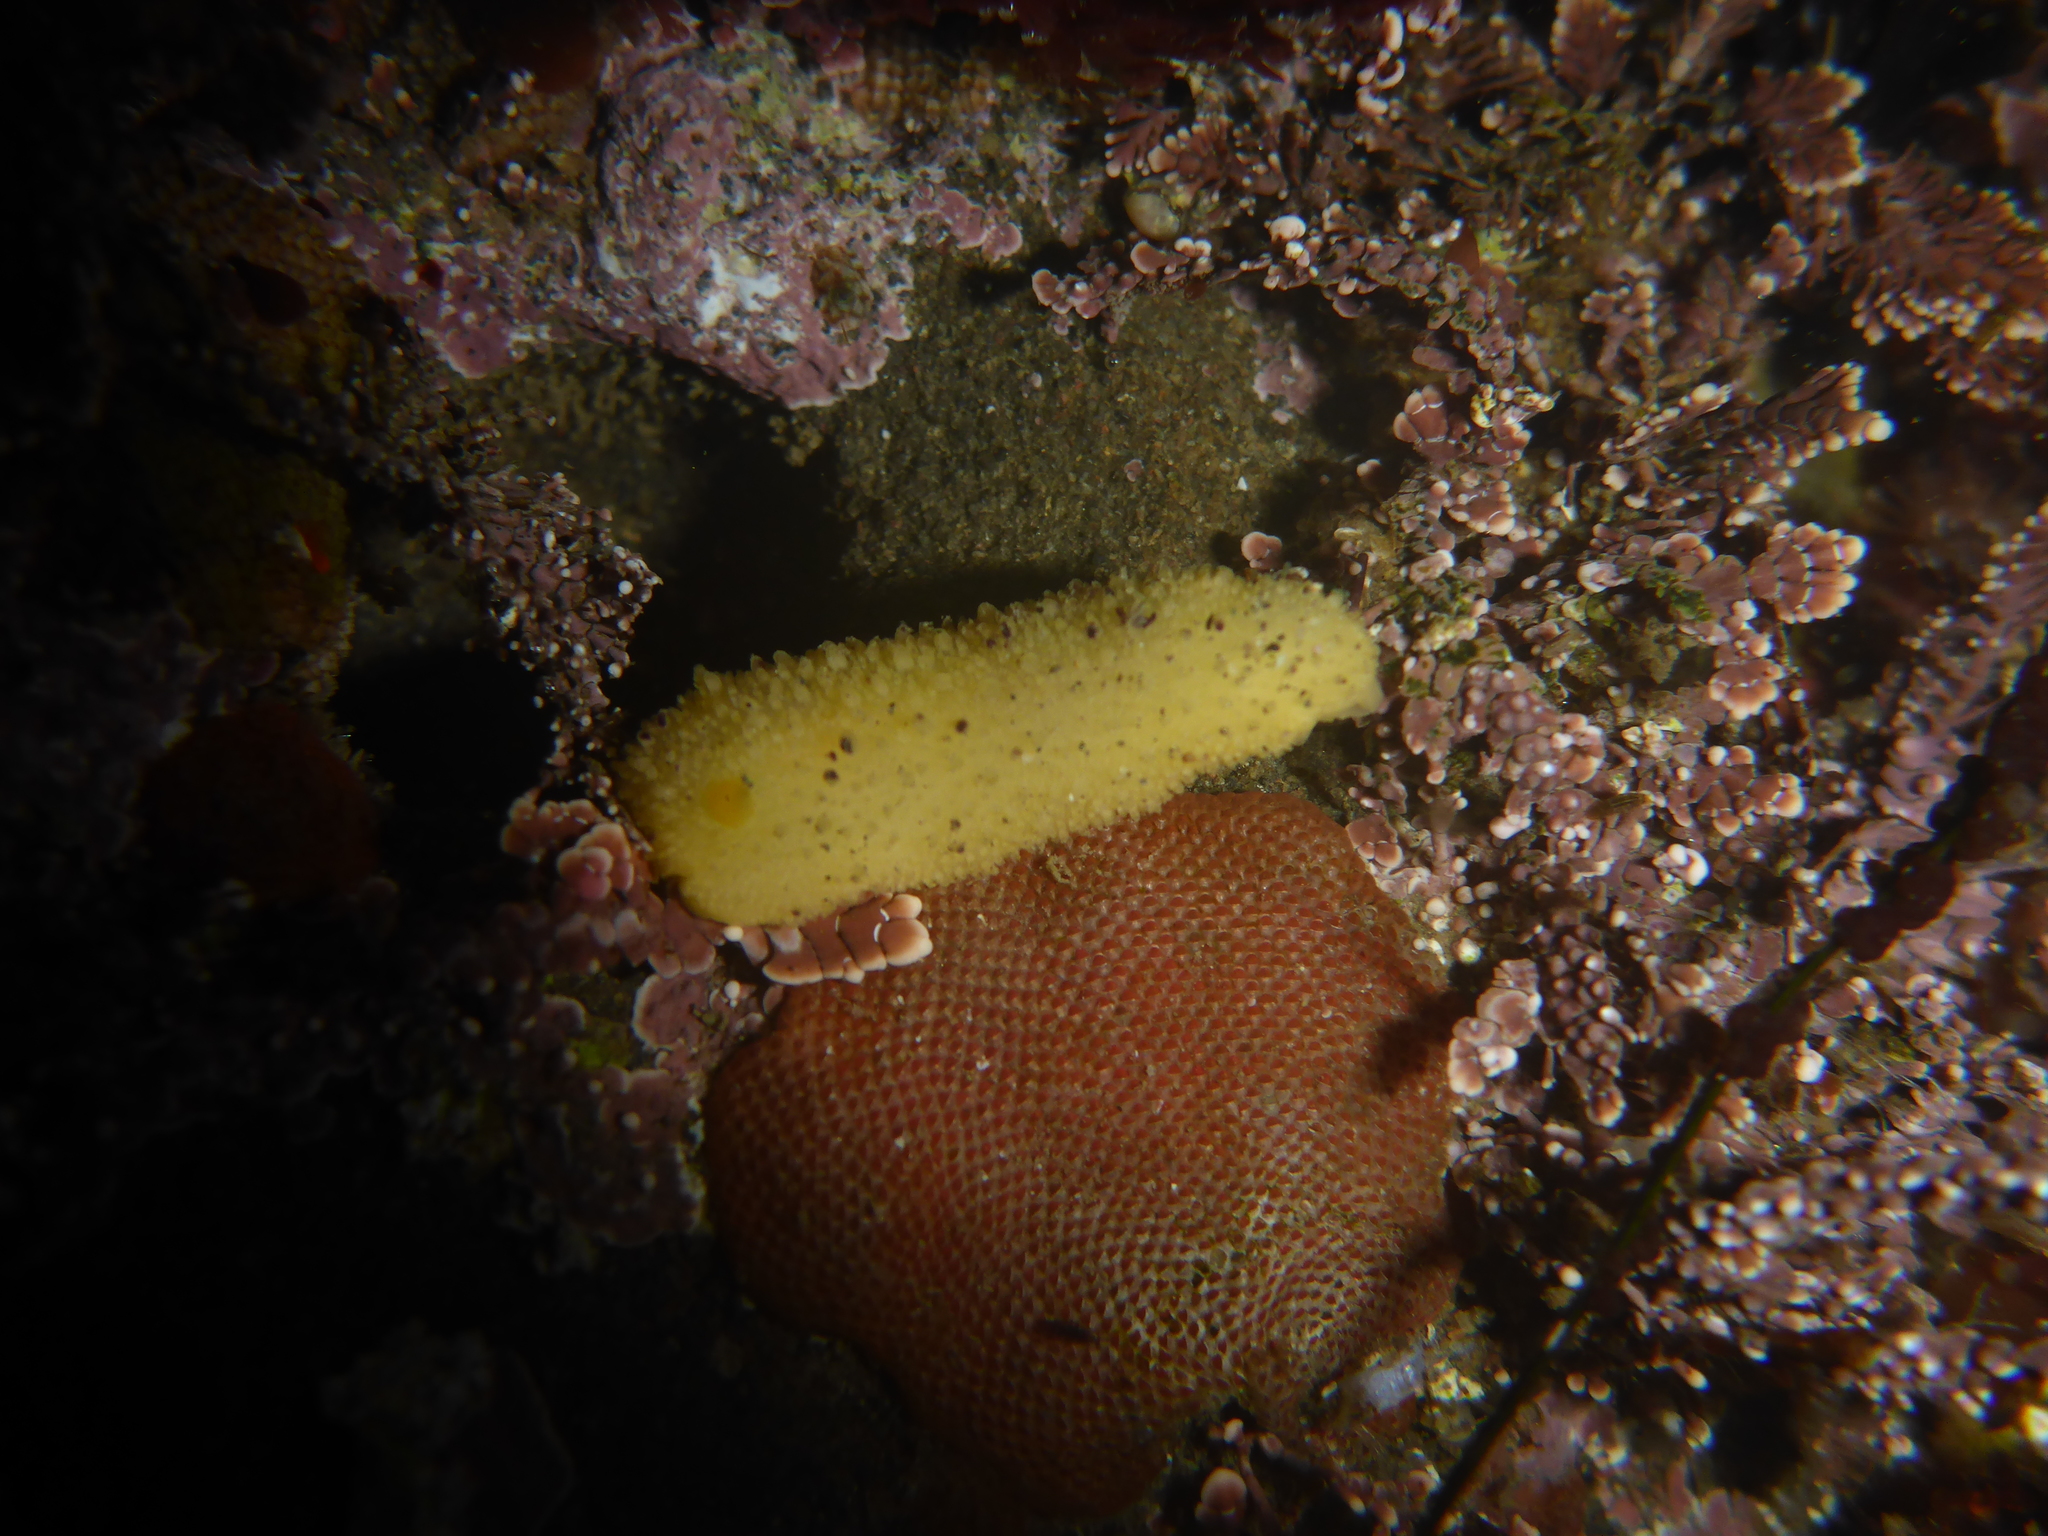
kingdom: Animalia
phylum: Mollusca
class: Gastropoda
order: Nudibranchia
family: Dorididae
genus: Doris
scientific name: Doris montereyensis
